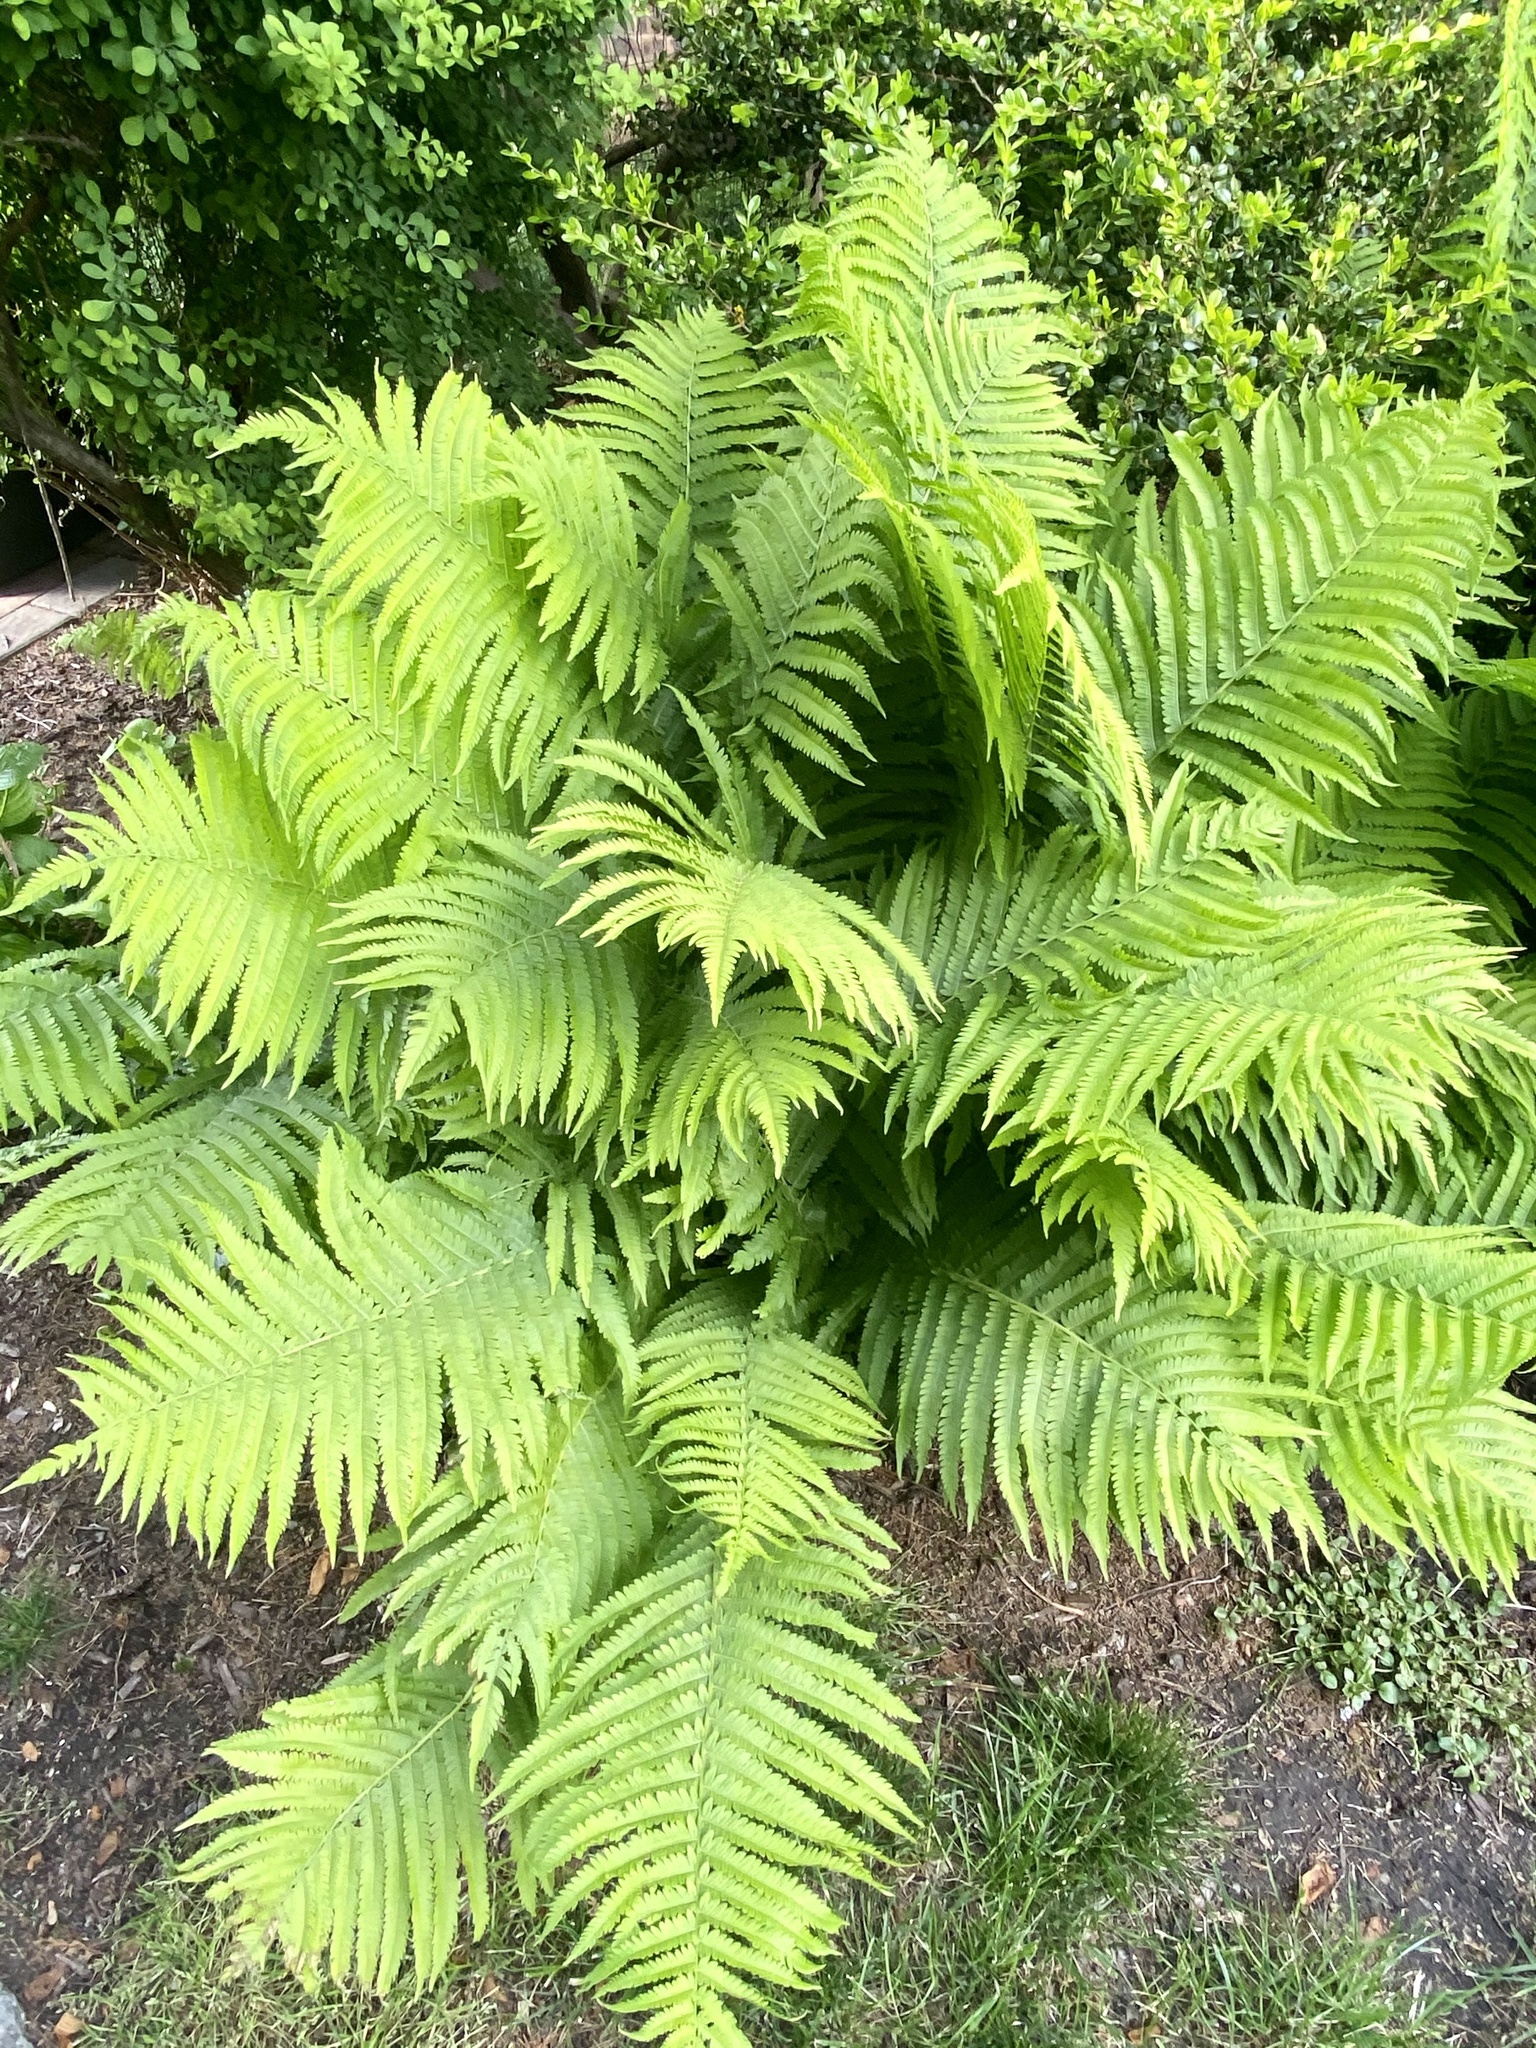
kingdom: Plantae
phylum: Tracheophyta
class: Polypodiopsida
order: Polypodiales
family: Onocleaceae
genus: Matteuccia
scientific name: Matteuccia struthiopteris
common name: Ostrich fern
